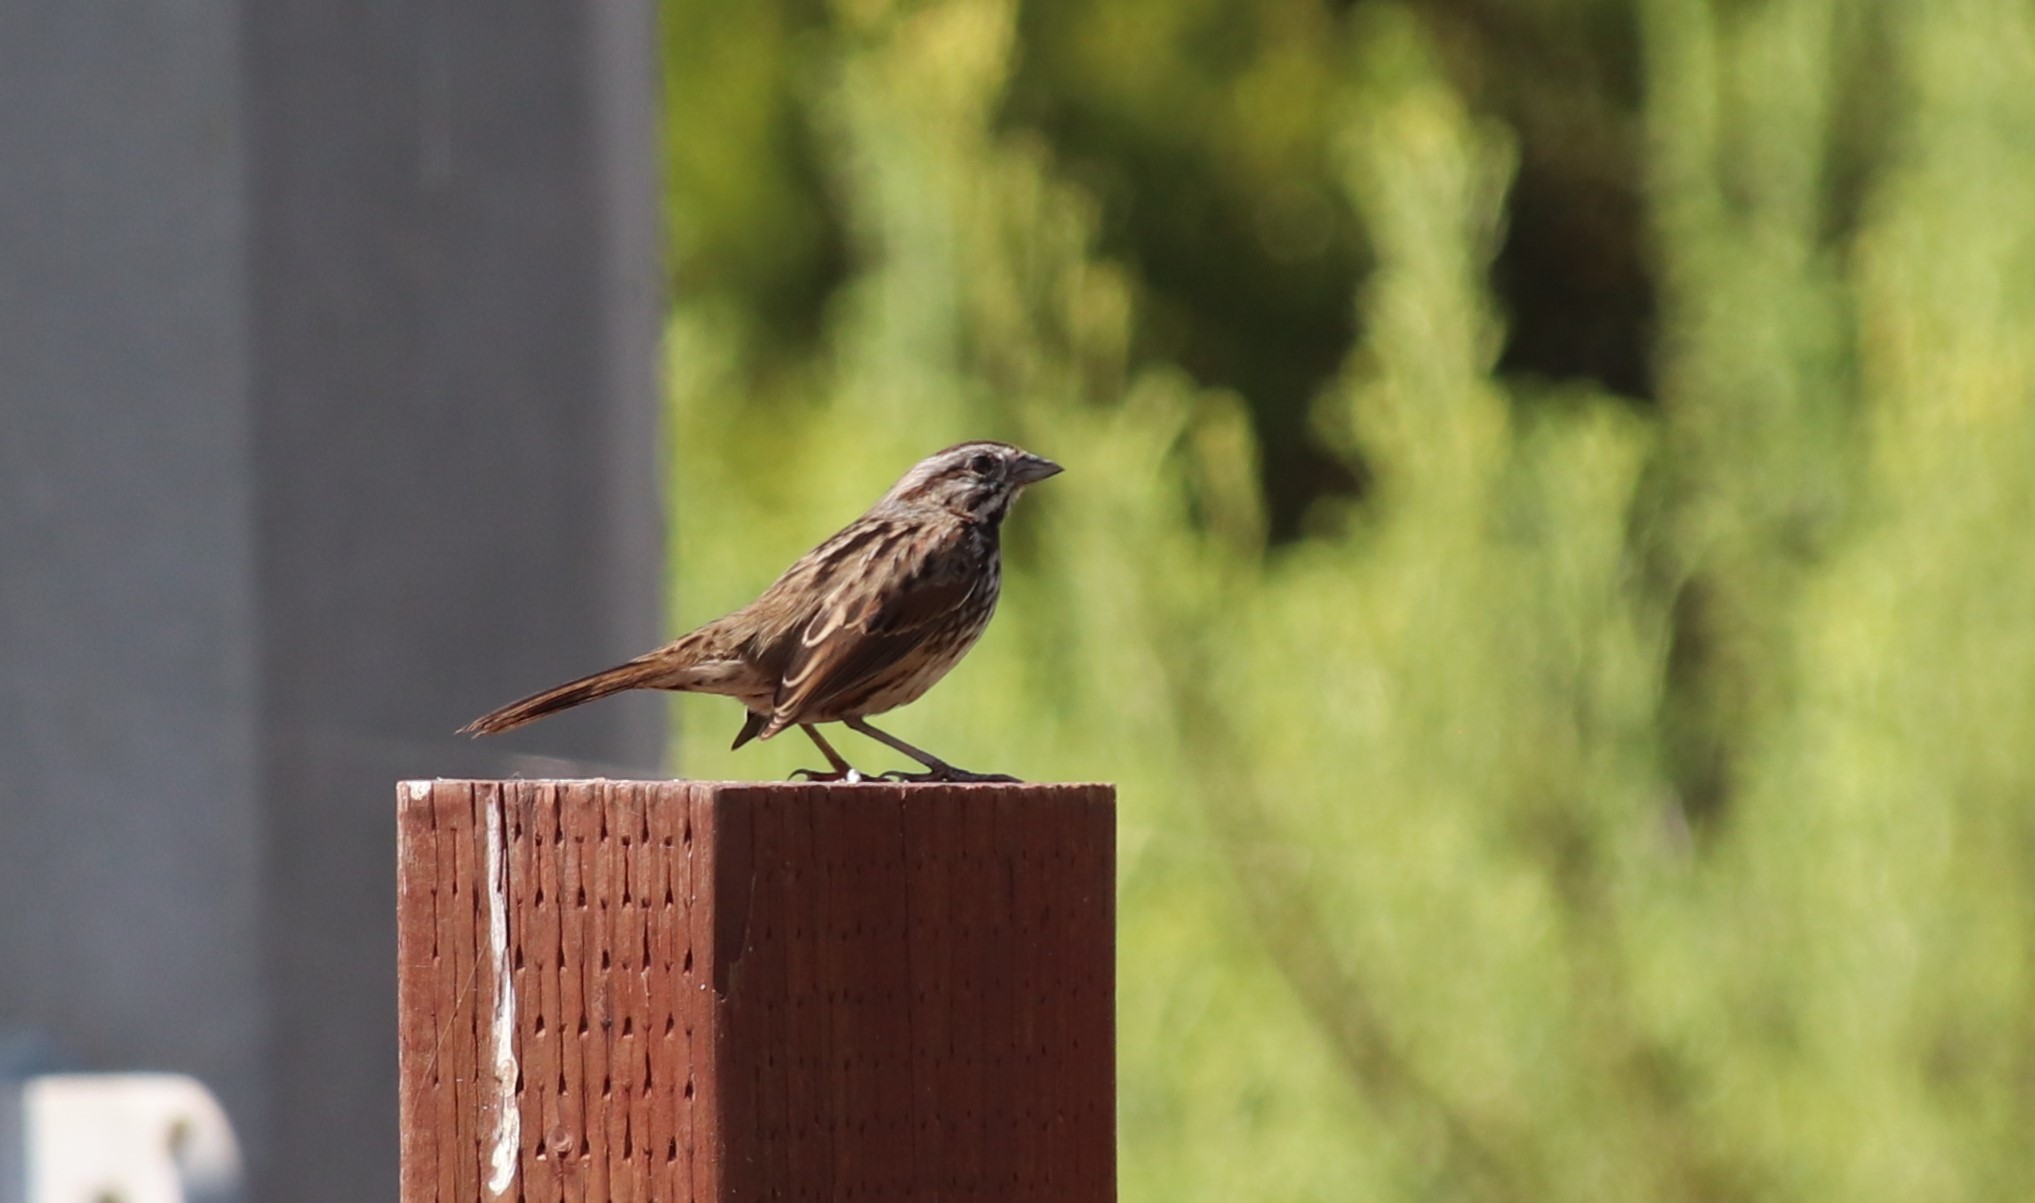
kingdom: Animalia
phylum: Chordata
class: Aves
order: Passeriformes
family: Passerellidae
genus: Melospiza
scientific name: Melospiza melodia
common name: Song sparrow
